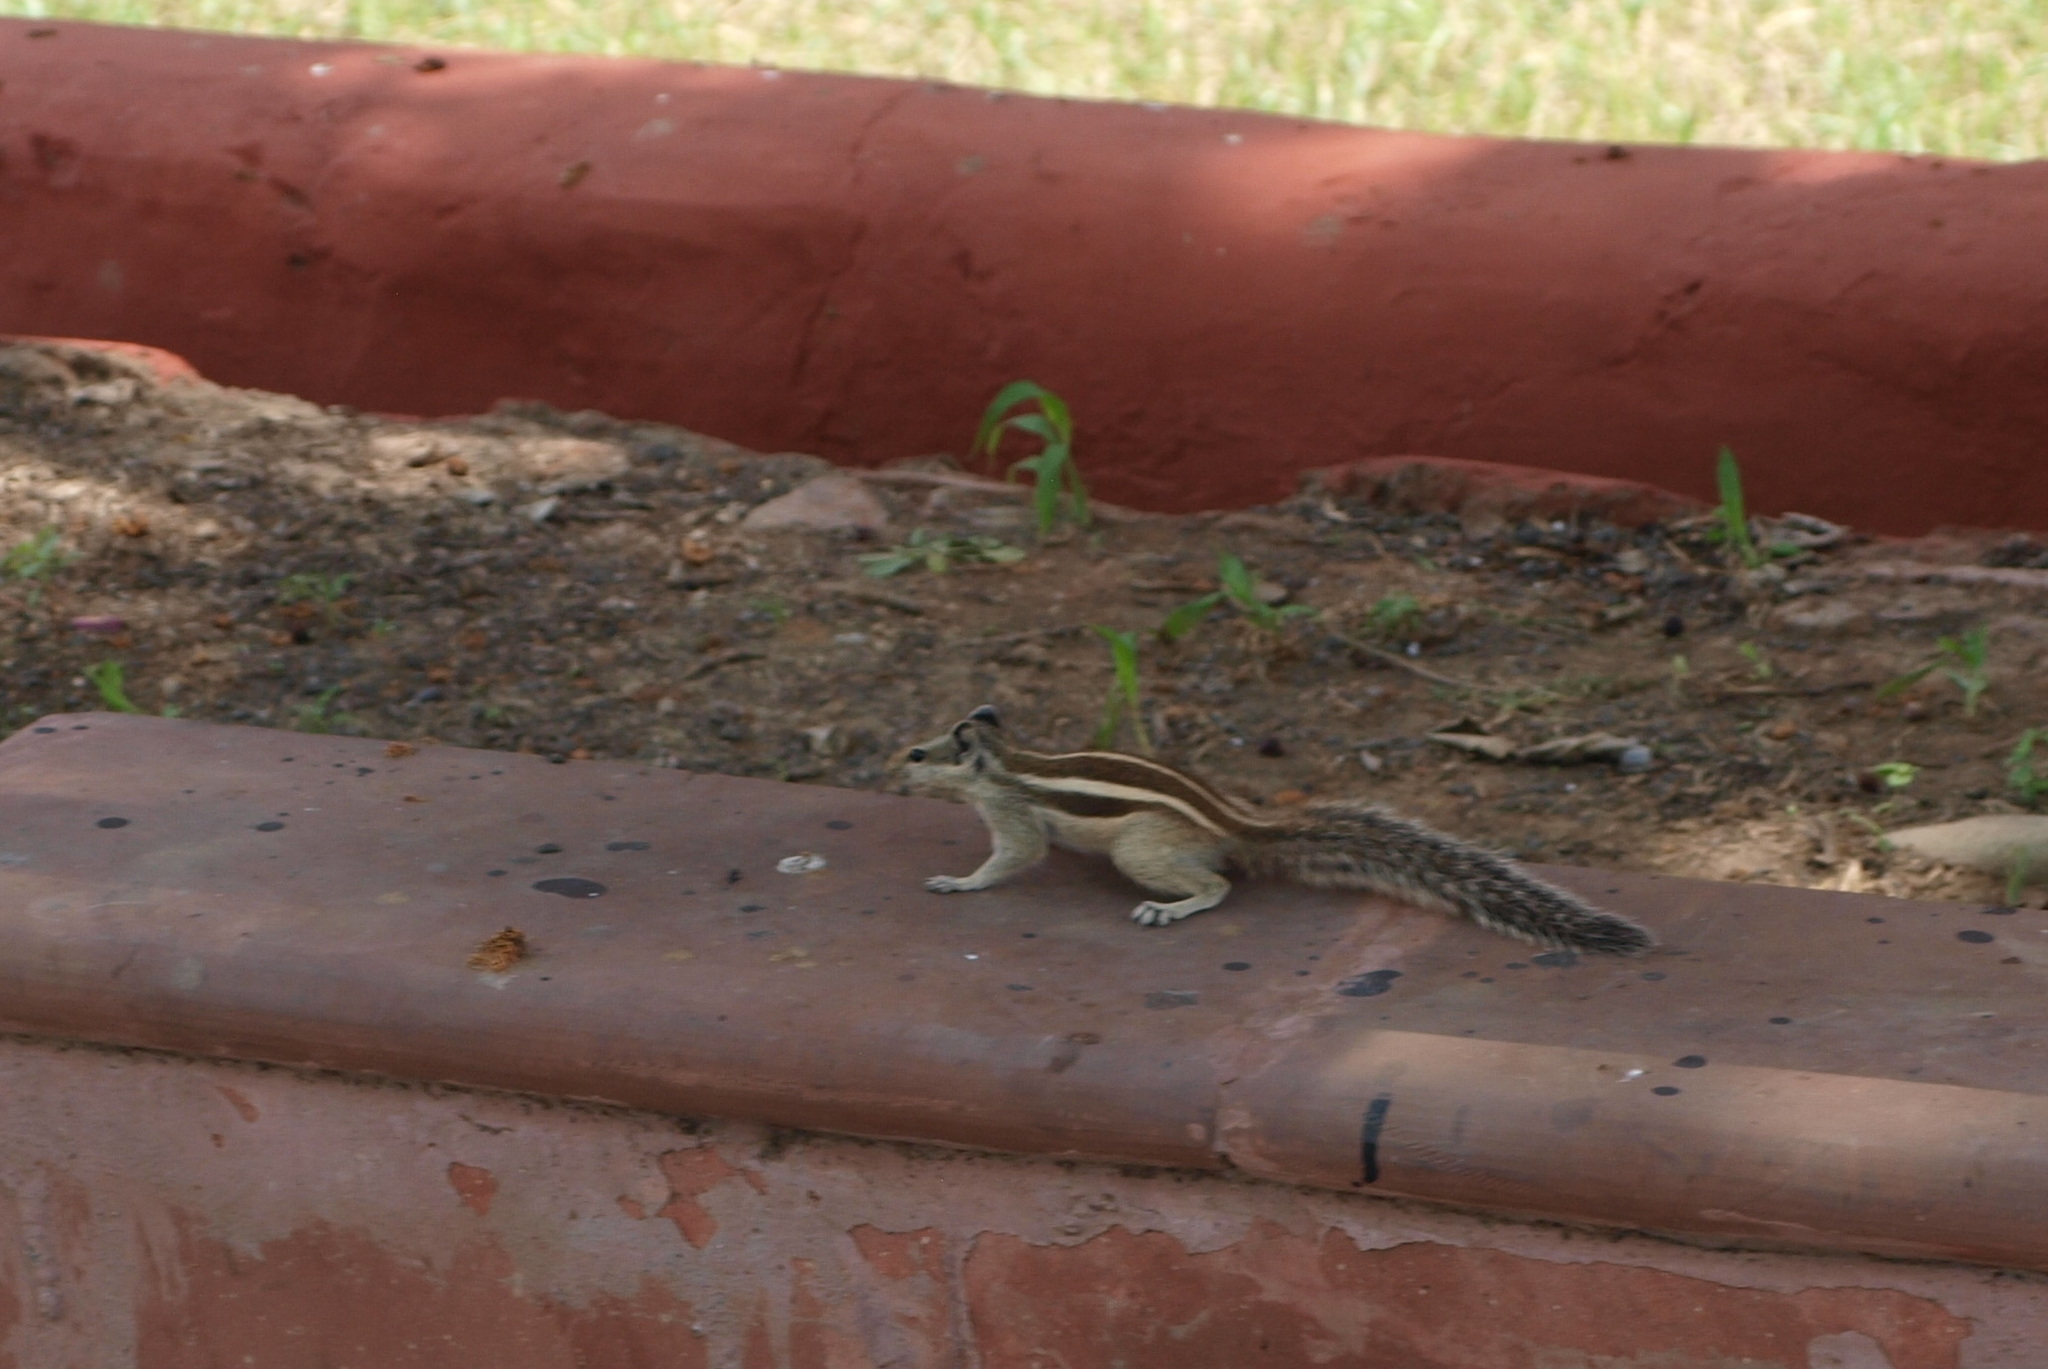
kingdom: Animalia
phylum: Chordata
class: Mammalia
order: Rodentia
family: Sciuridae
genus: Funambulus
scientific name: Funambulus pennantii
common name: Northern palm squirrel
